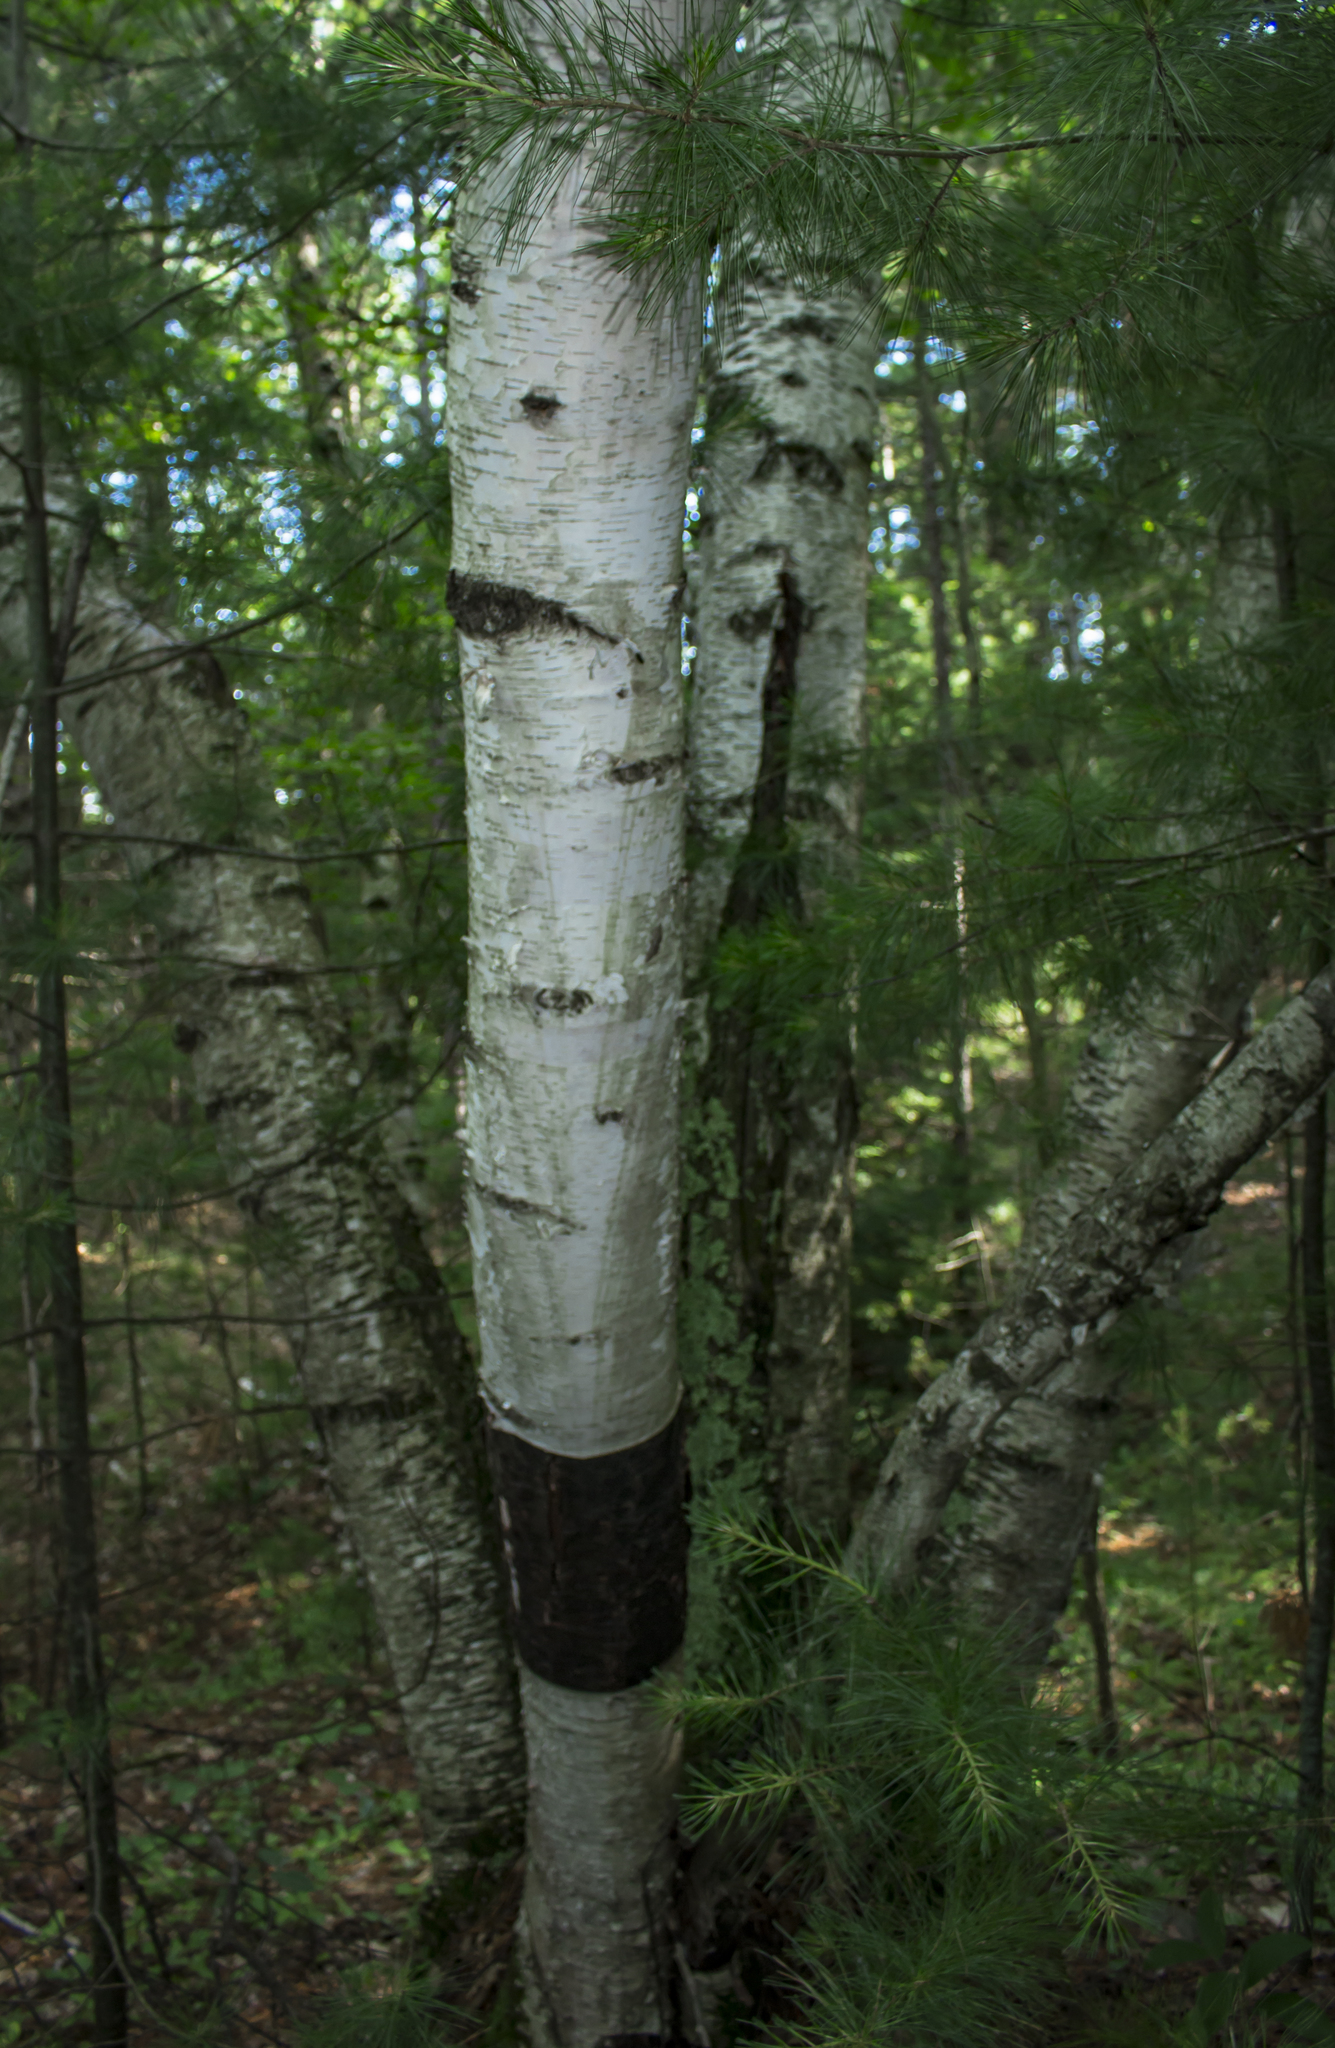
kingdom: Plantae
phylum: Tracheophyta
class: Magnoliopsida
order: Fagales
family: Betulaceae
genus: Betula
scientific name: Betula papyrifera
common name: Paper birch
